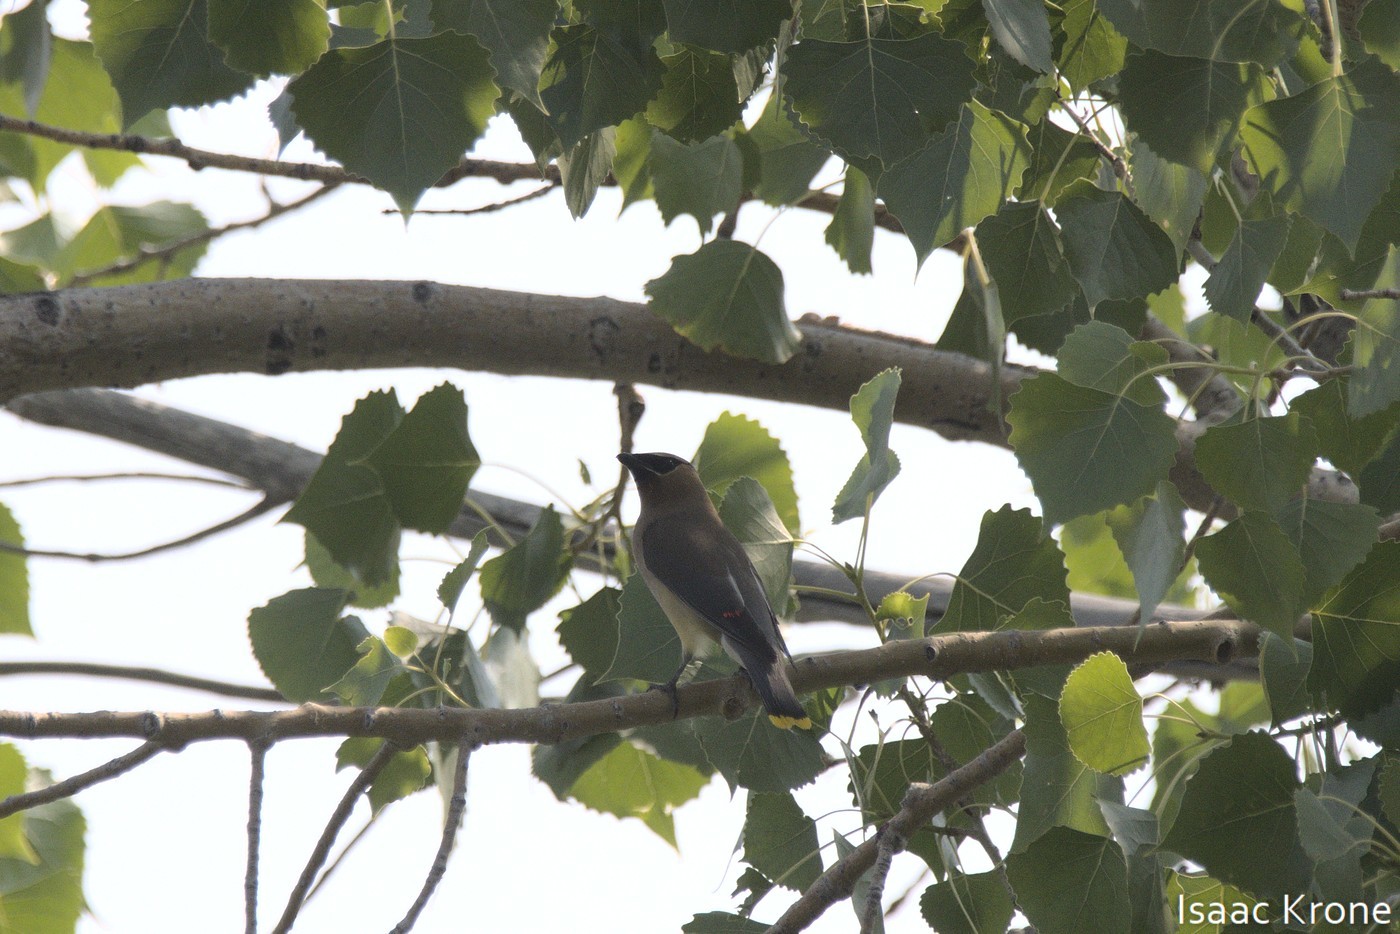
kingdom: Animalia
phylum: Chordata
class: Aves
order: Passeriformes
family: Bombycillidae
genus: Bombycilla
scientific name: Bombycilla cedrorum
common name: Cedar waxwing
